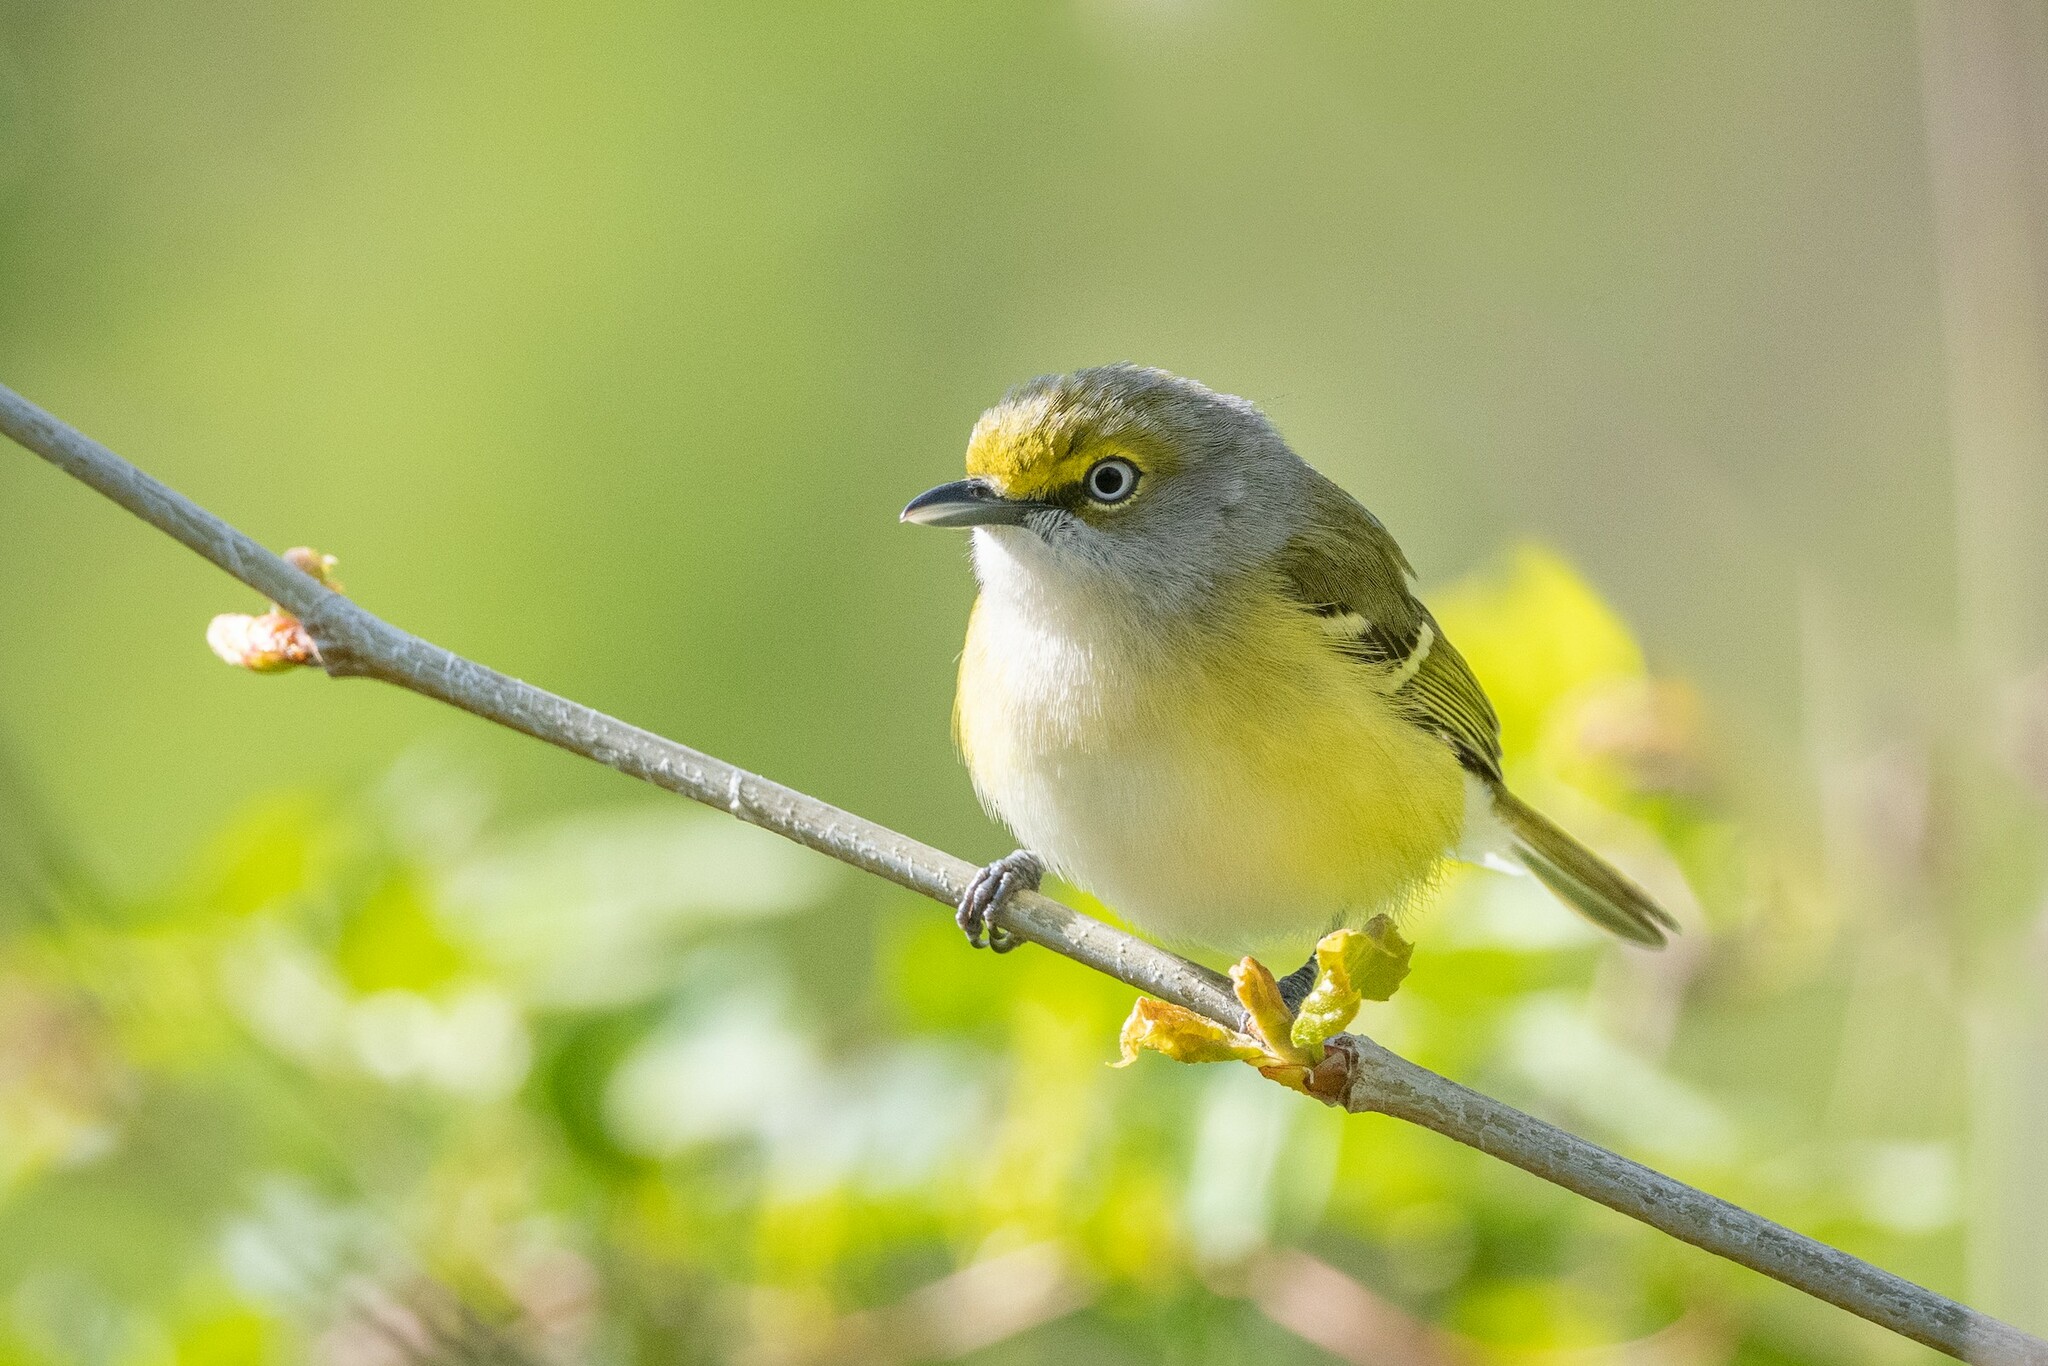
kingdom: Animalia
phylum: Chordata
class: Aves
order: Passeriformes
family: Vireonidae
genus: Vireo
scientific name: Vireo griseus
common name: White-eyed vireo
